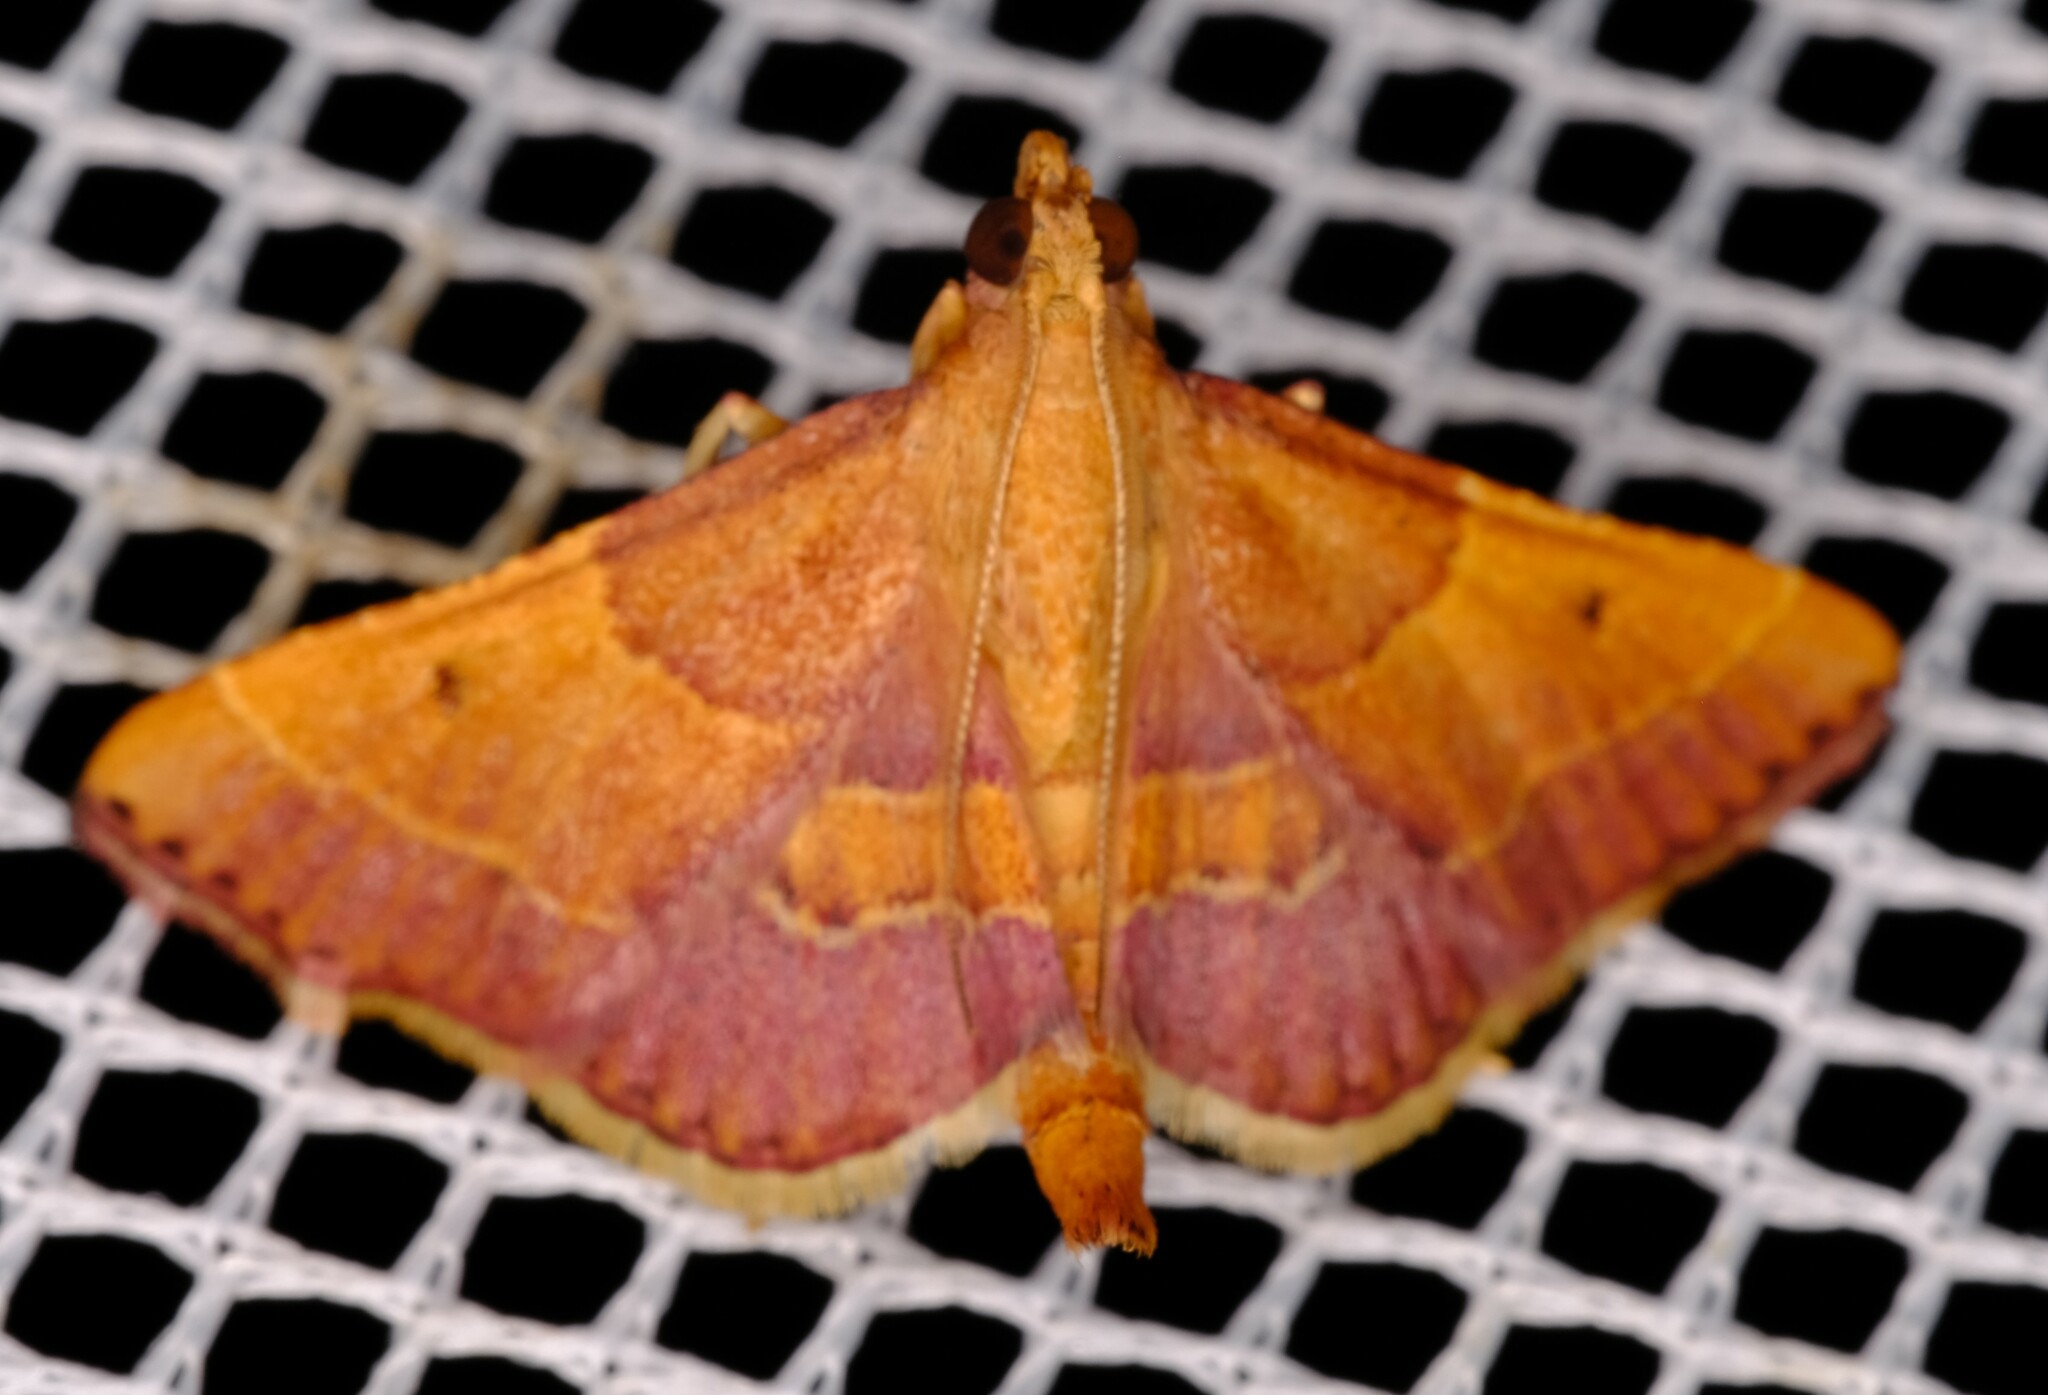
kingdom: Animalia
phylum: Arthropoda
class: Insecta
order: Lepidoptera
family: Pyralidae
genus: Endosimilis
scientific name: Endosimilis stilbealis
